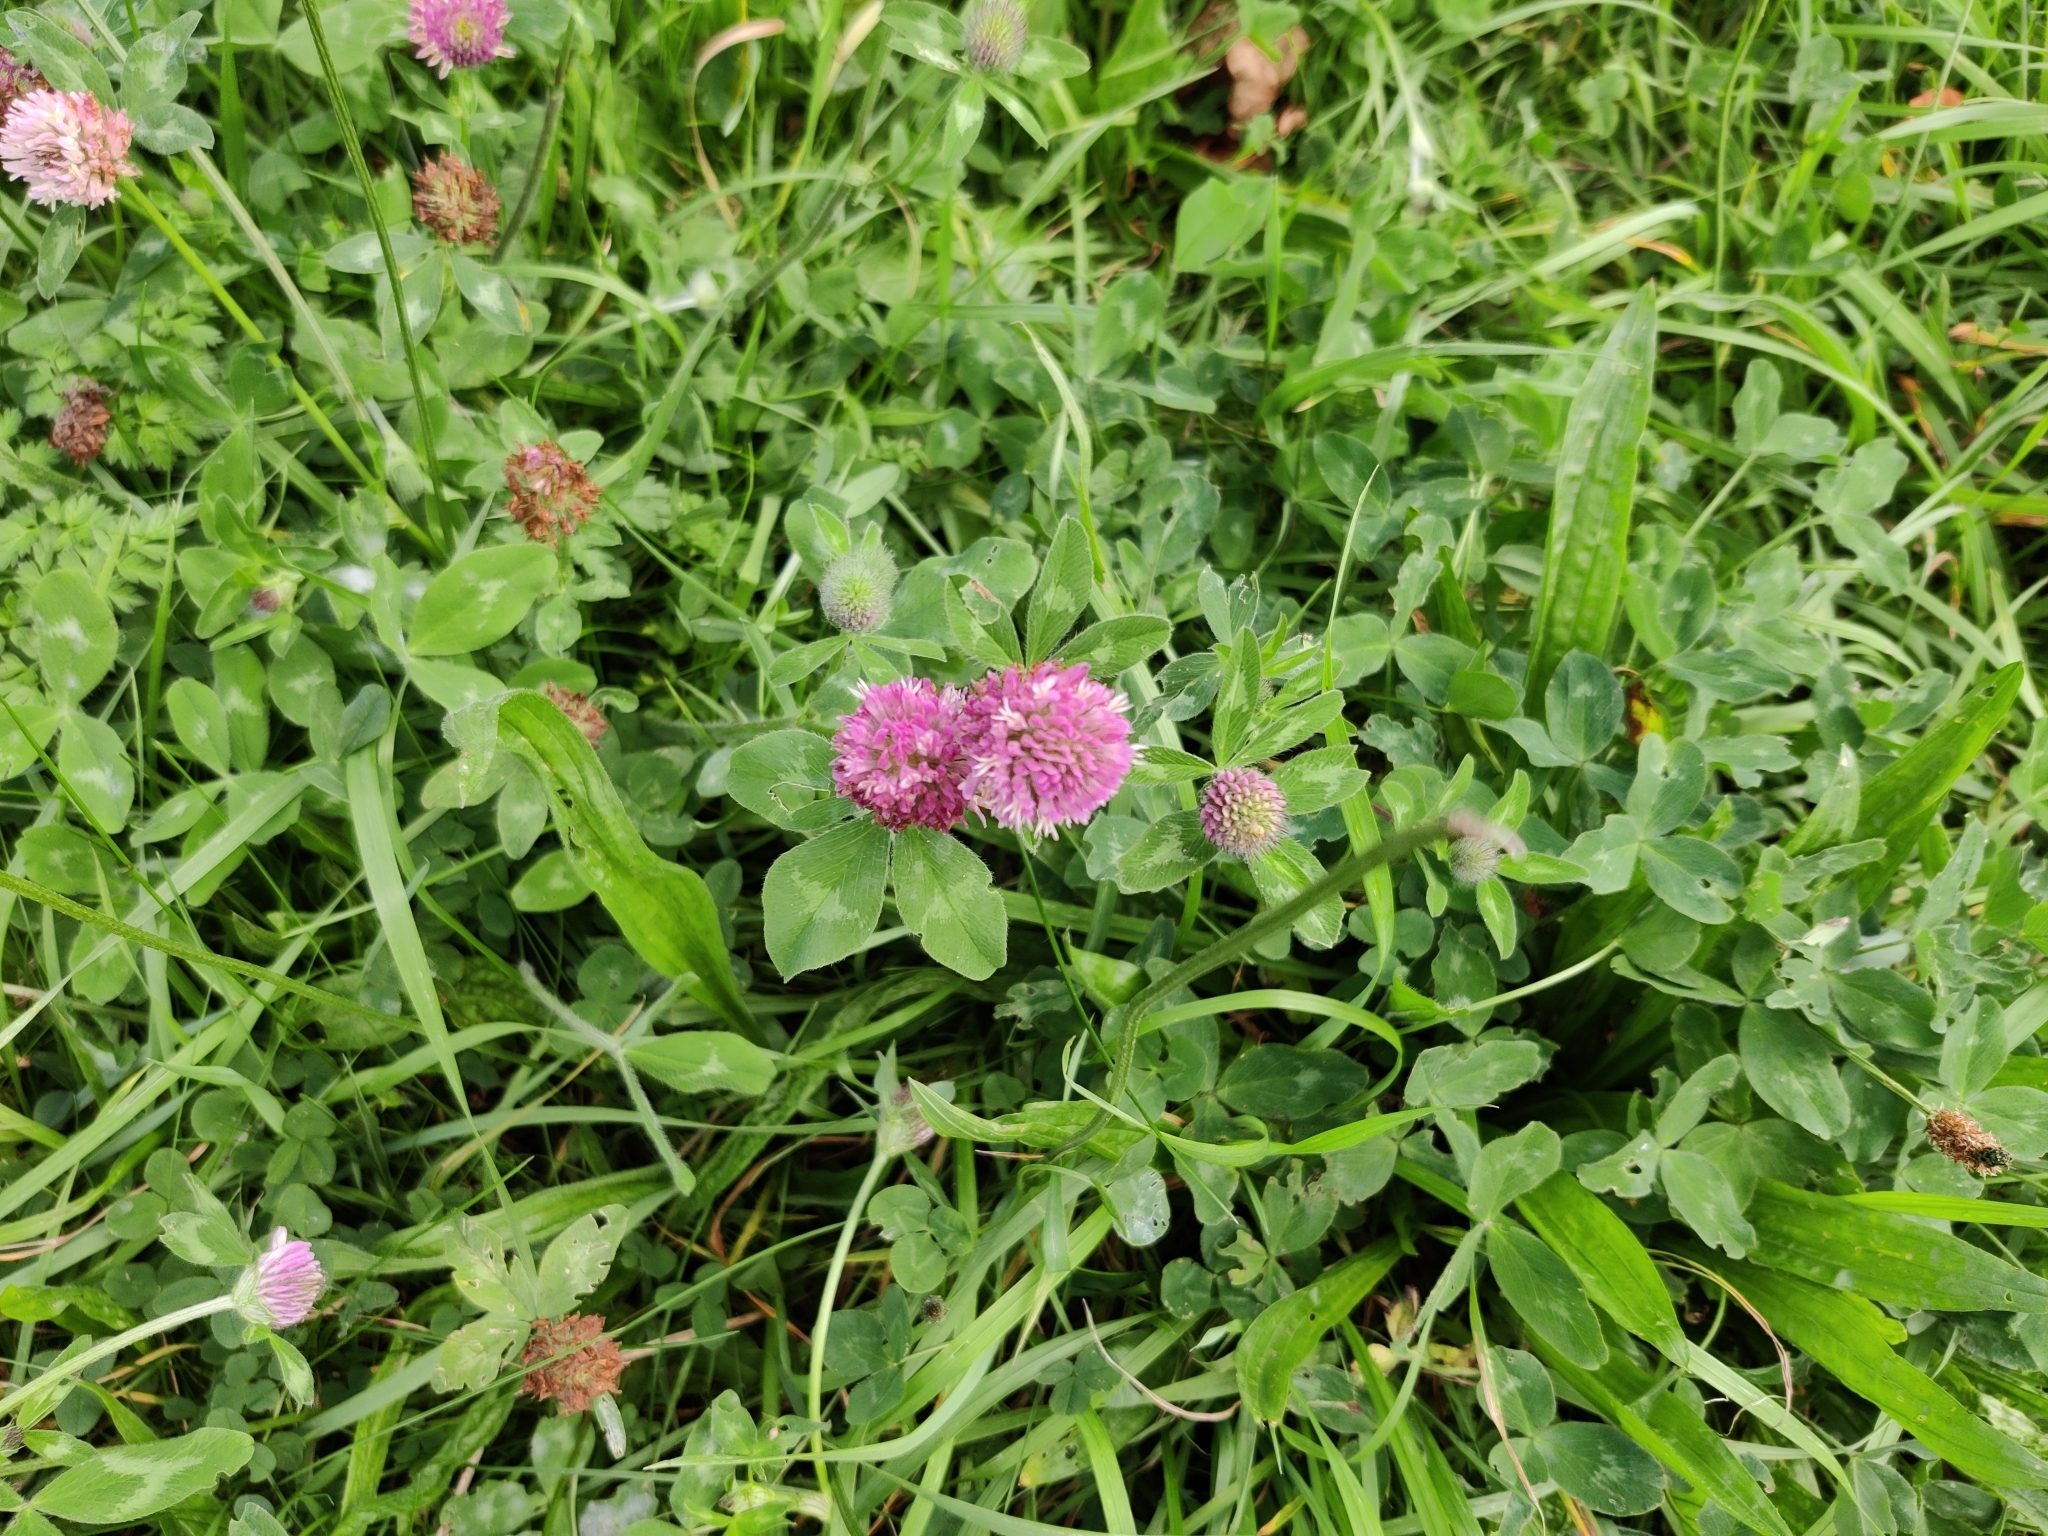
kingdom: Plantae
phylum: Tracheophyta
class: Magnoliopsida
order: Fabales
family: Fabaceae
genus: Trifolium
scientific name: Trifolium pratense
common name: Red clover
